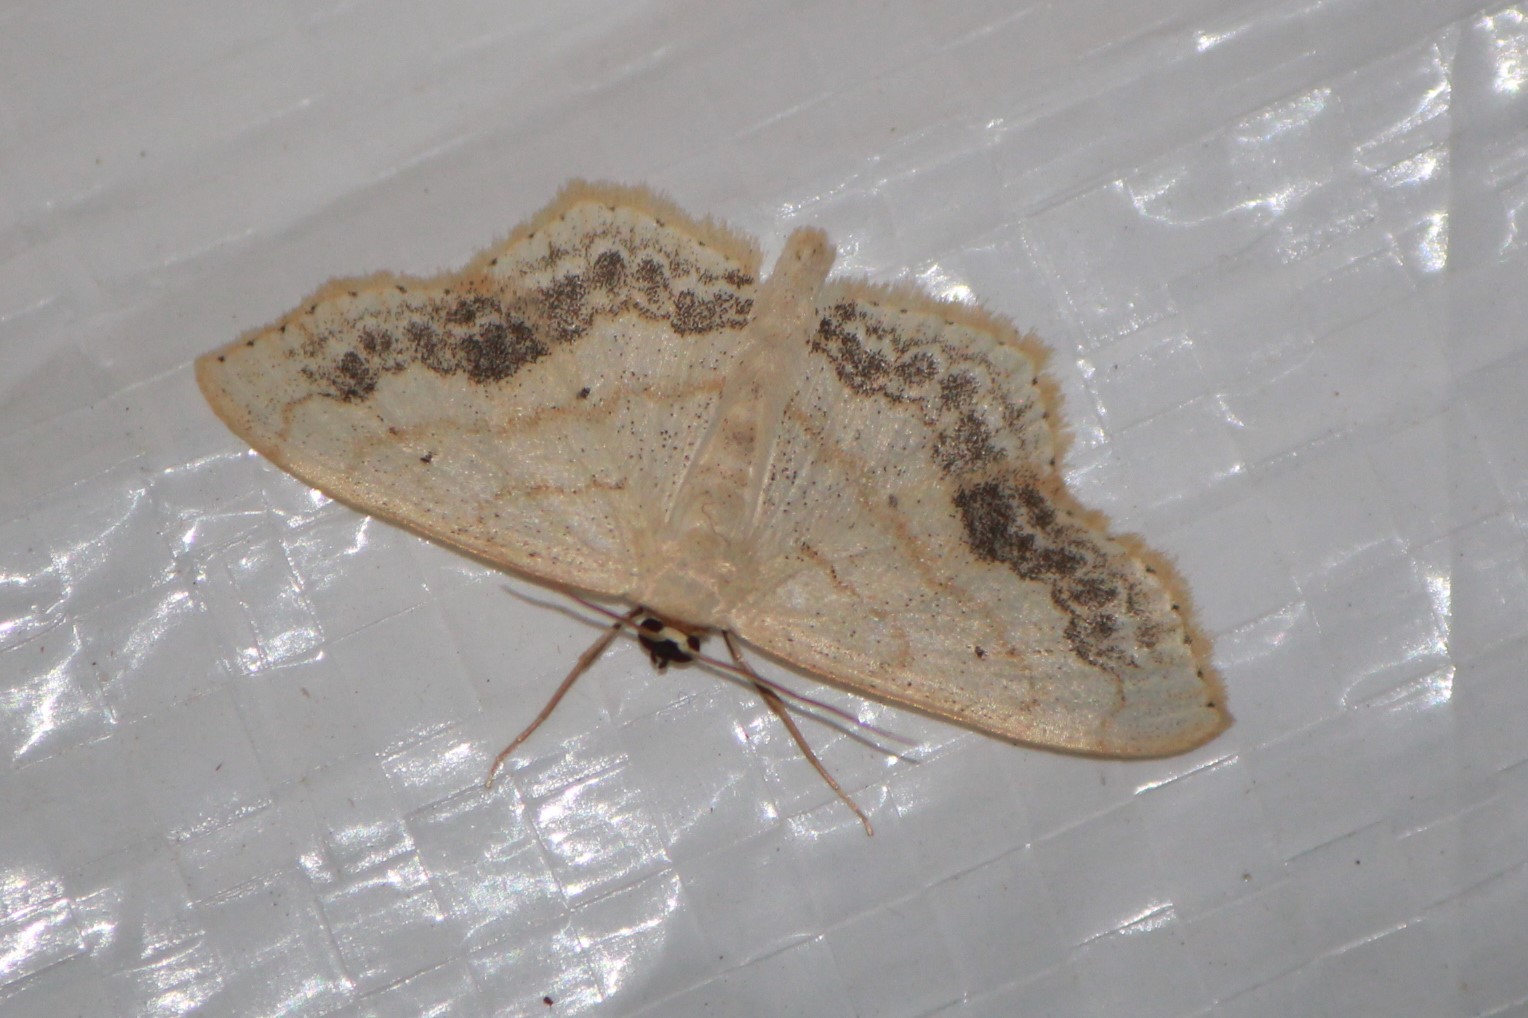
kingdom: Animalia
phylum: Arthropoda
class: Insecta
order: Lepidoptera
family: Geometridae
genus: Scopula
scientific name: Scopula limboundata
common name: Large lace border
